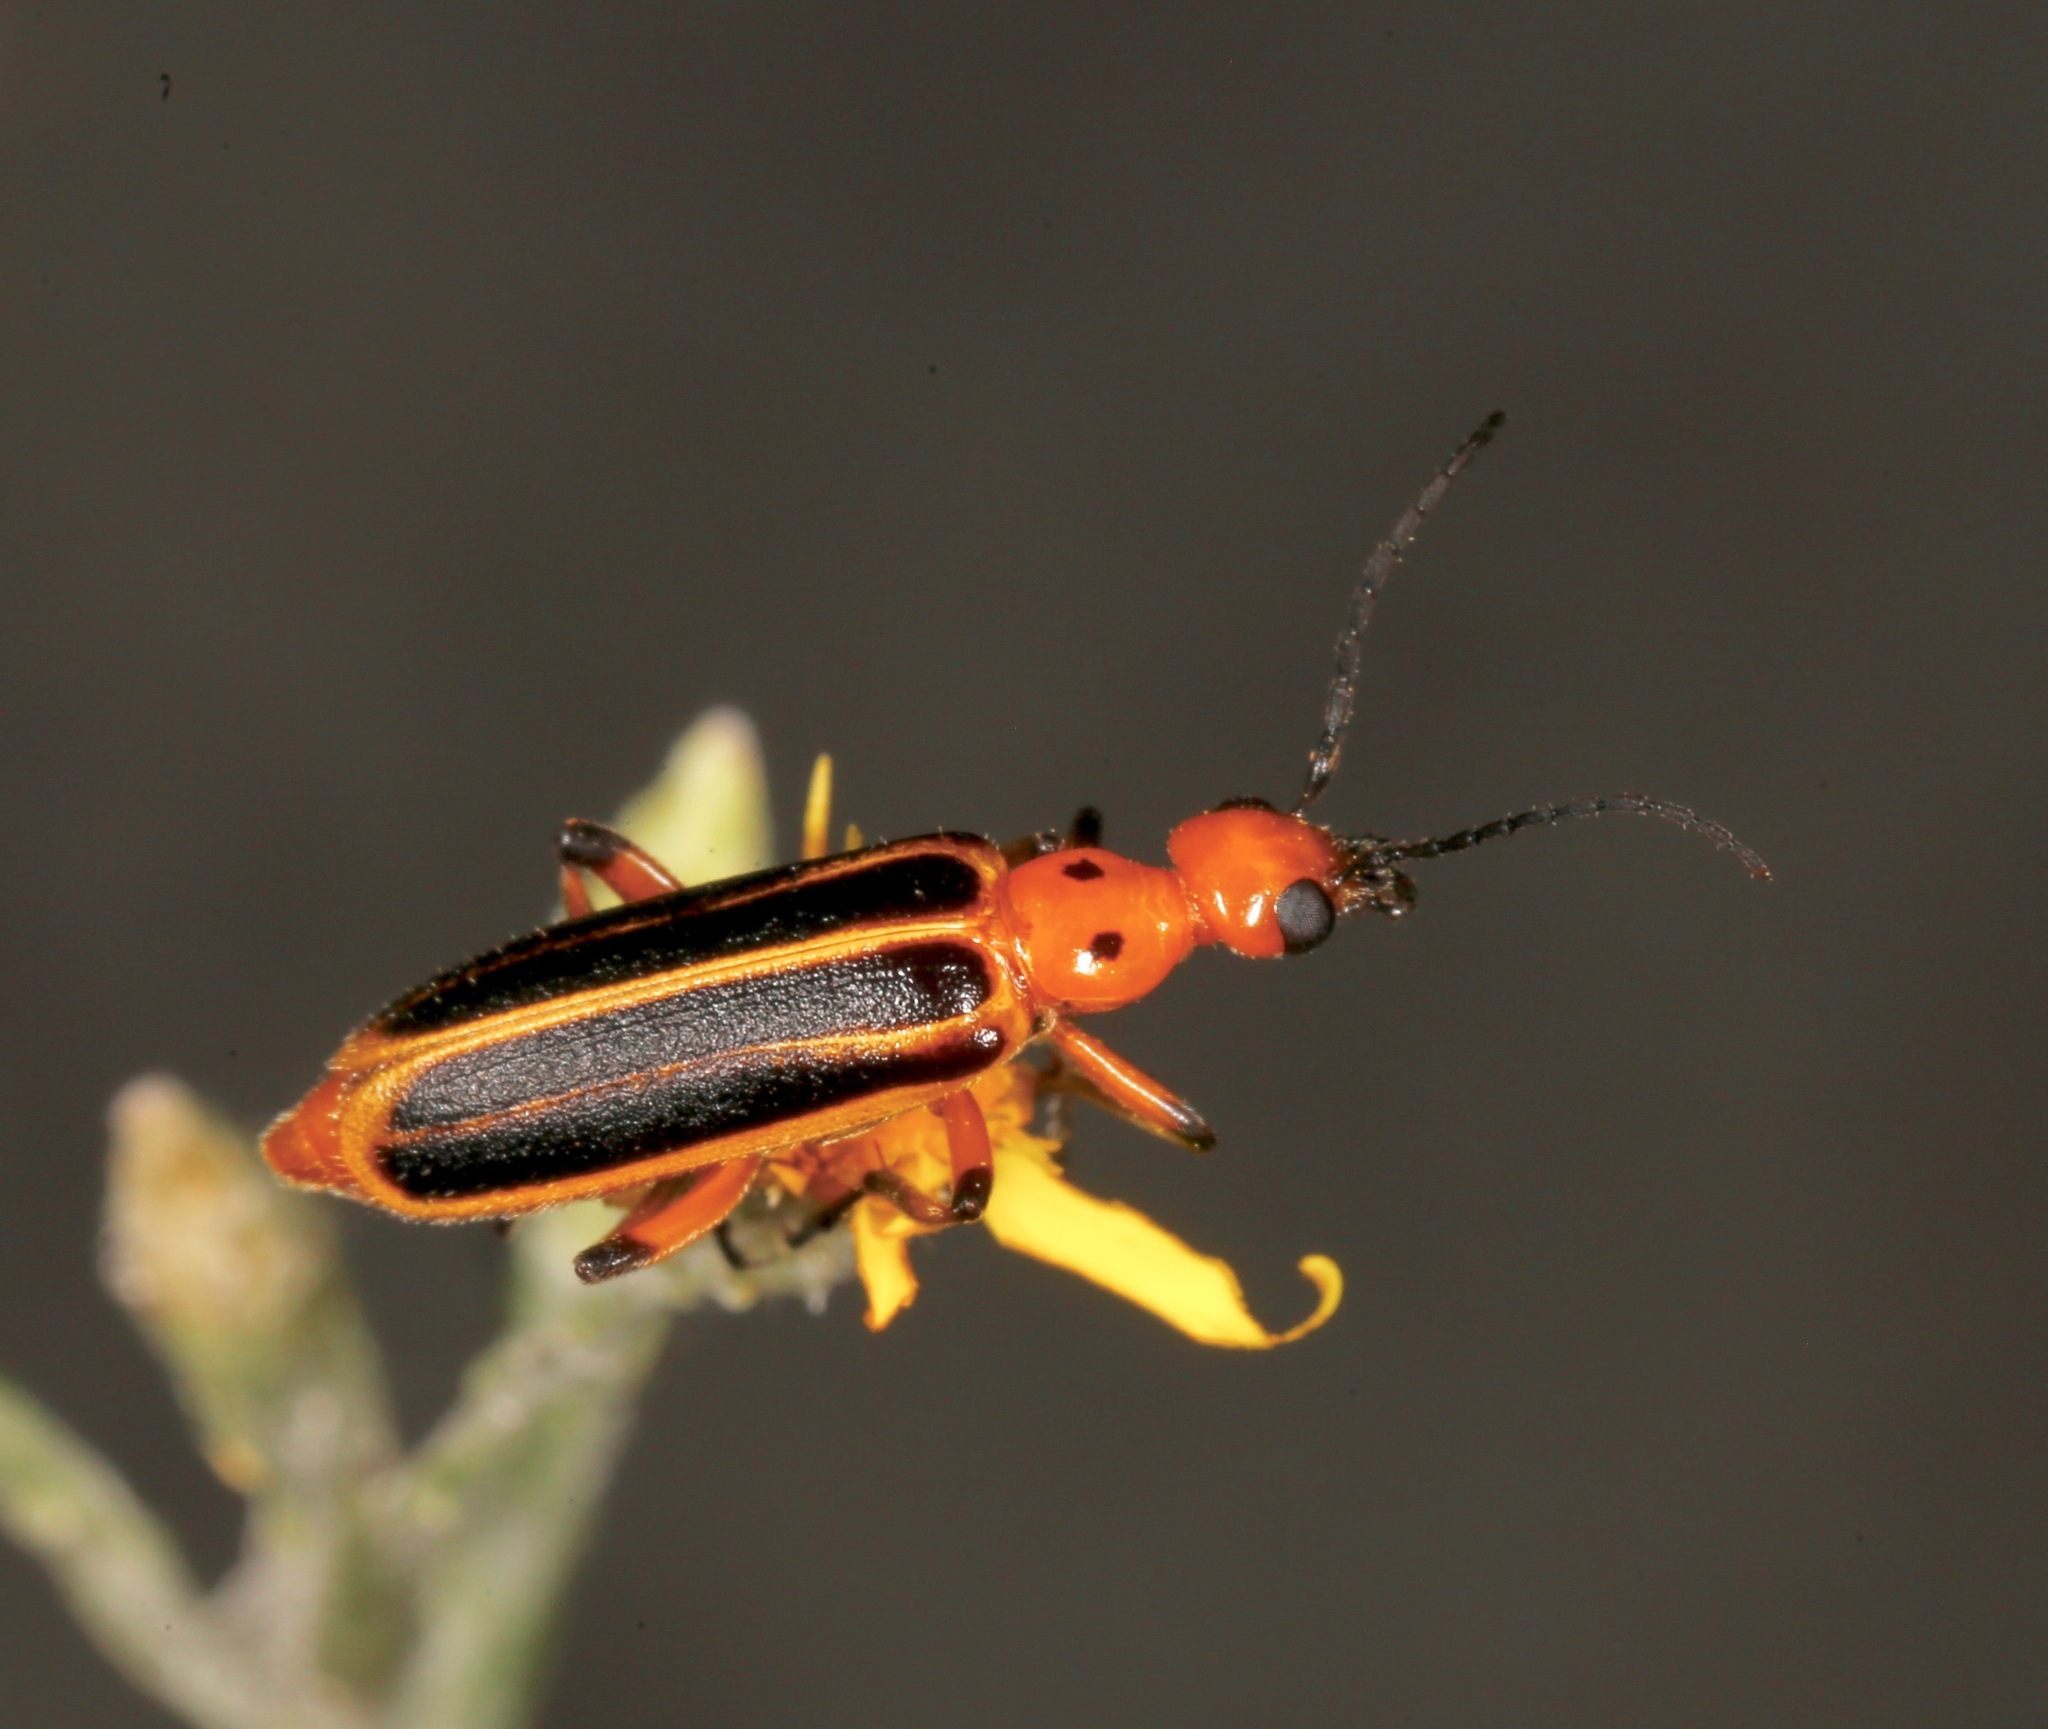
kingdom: Animalia
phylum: Arthropoda
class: Insecta
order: Coleoptera
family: Meloidae
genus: Pyrota
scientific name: Pyrota
